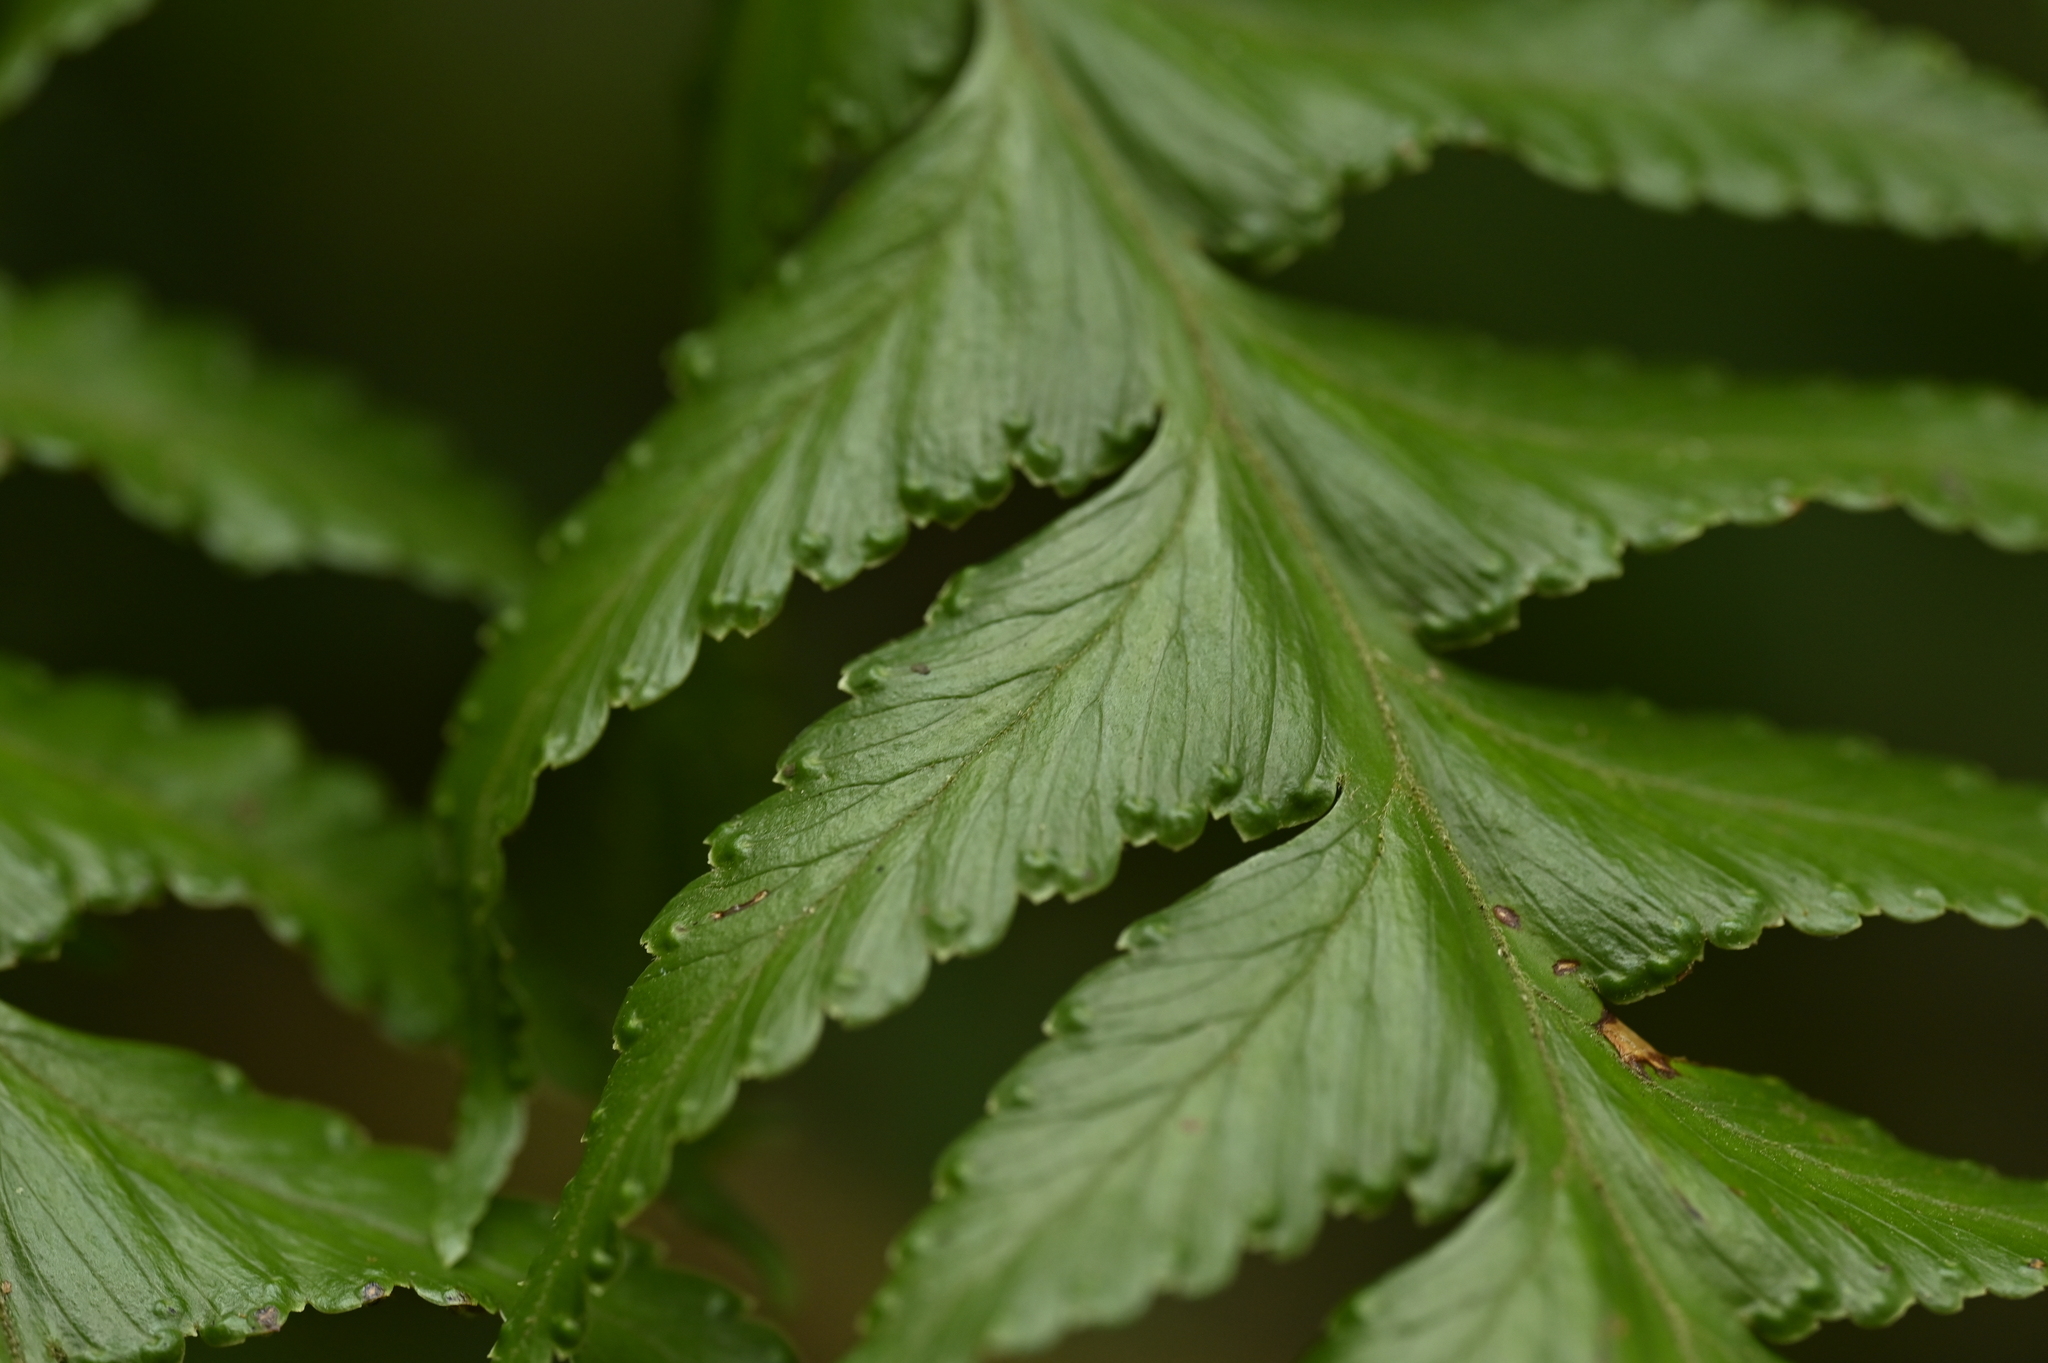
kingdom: Plantae
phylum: Tracheophyta
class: Polypodiopsida
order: Polypodiales
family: Dennstaedtiaceae
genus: Microlepia
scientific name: Microlepia platyphylla
